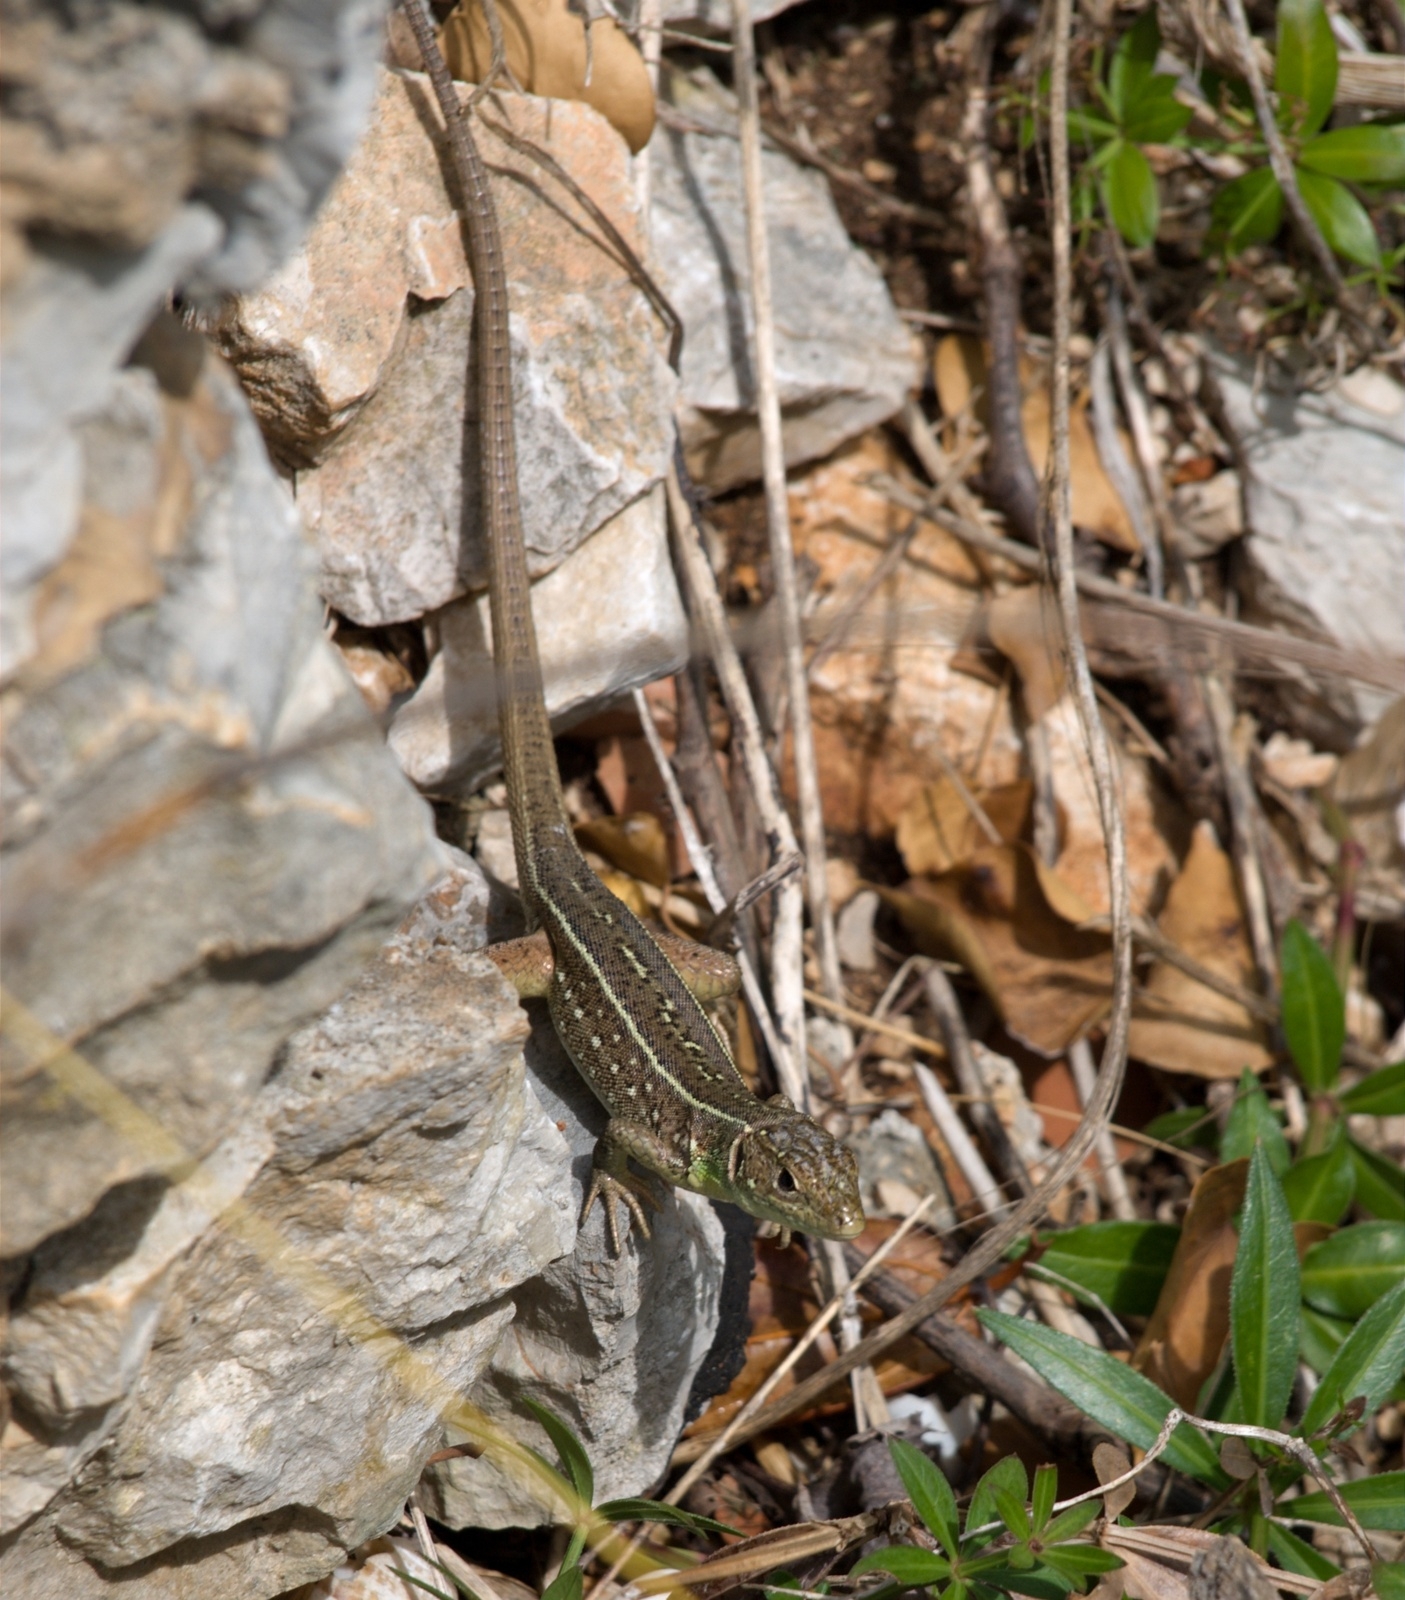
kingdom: Animalia
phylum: Chordata
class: Squamata
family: Lacertidae
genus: Lacerta
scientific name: Lacerta trilineata
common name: Balkan green lizard
